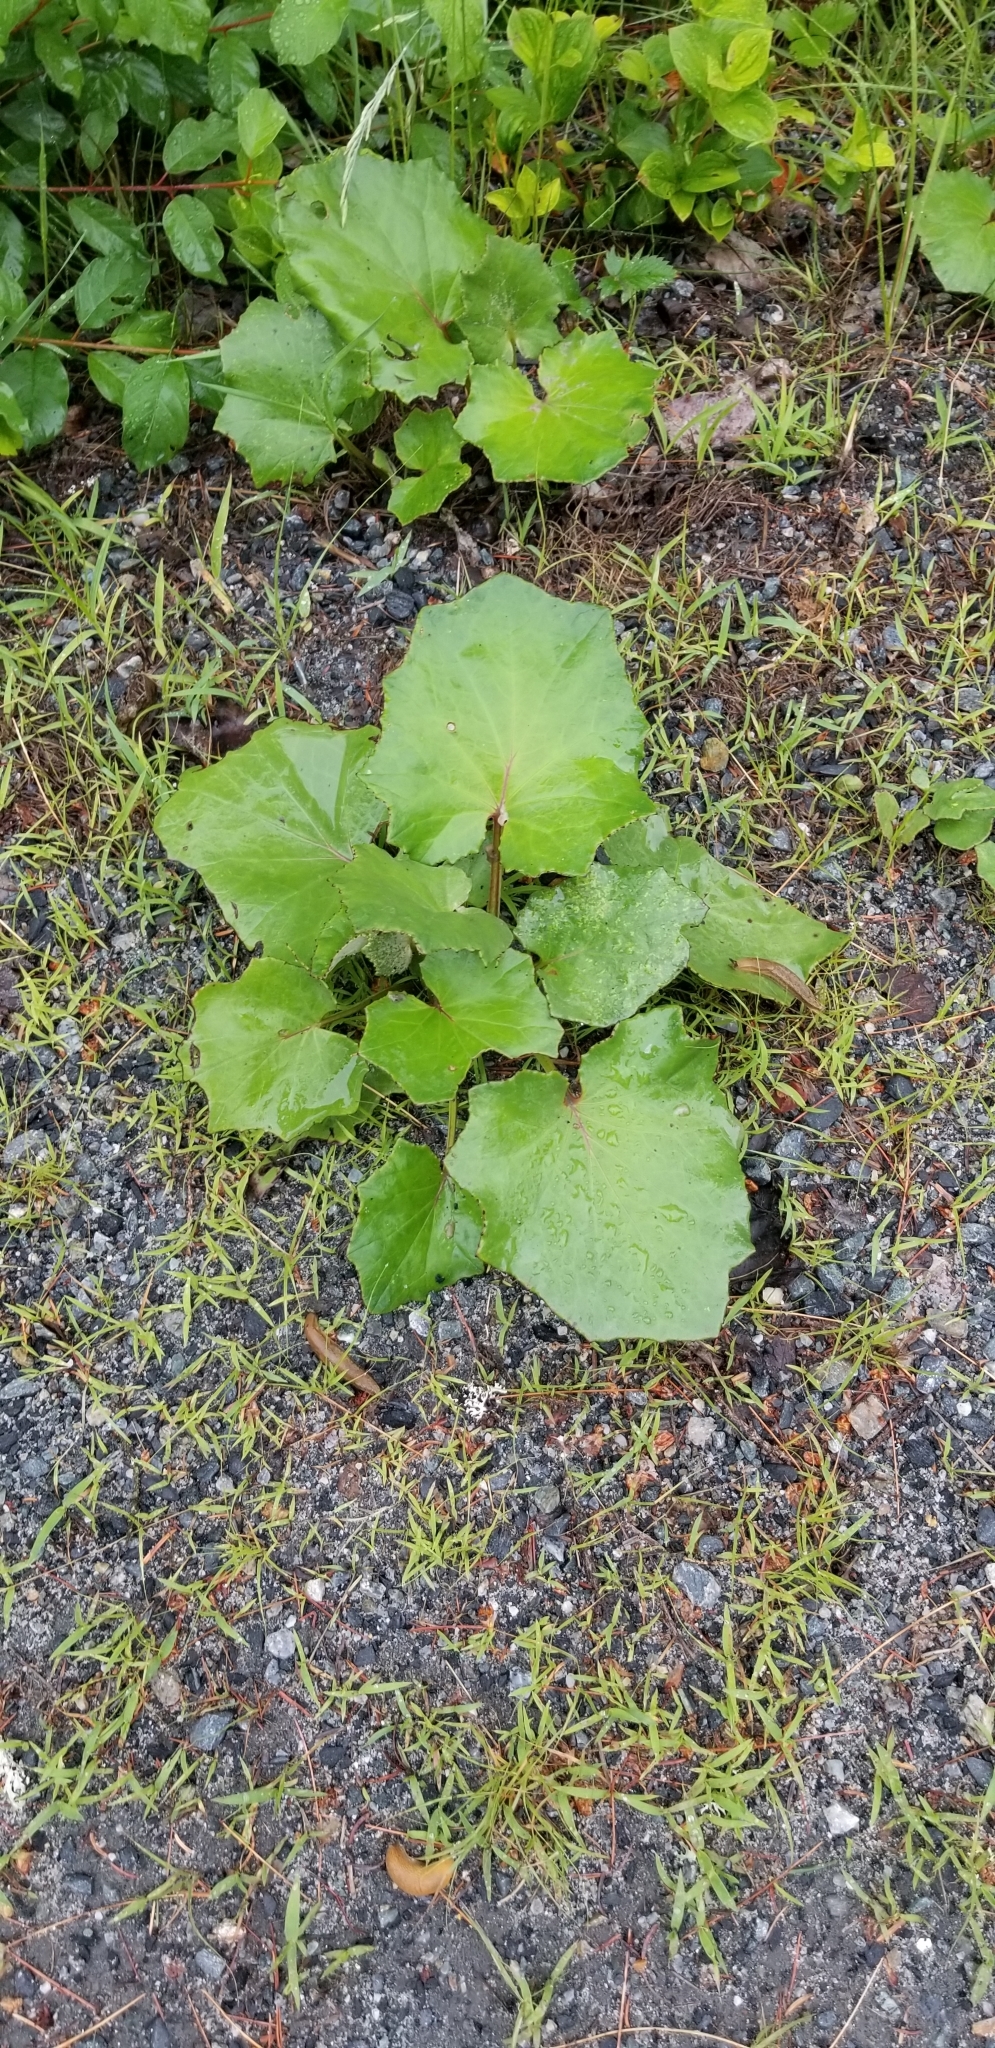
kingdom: Plantae
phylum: Tracheophyta
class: Magnoliopsida
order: Asterales
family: Asteraceae
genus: Tussilago
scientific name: Tussilago farfara
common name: Coltsfoot
